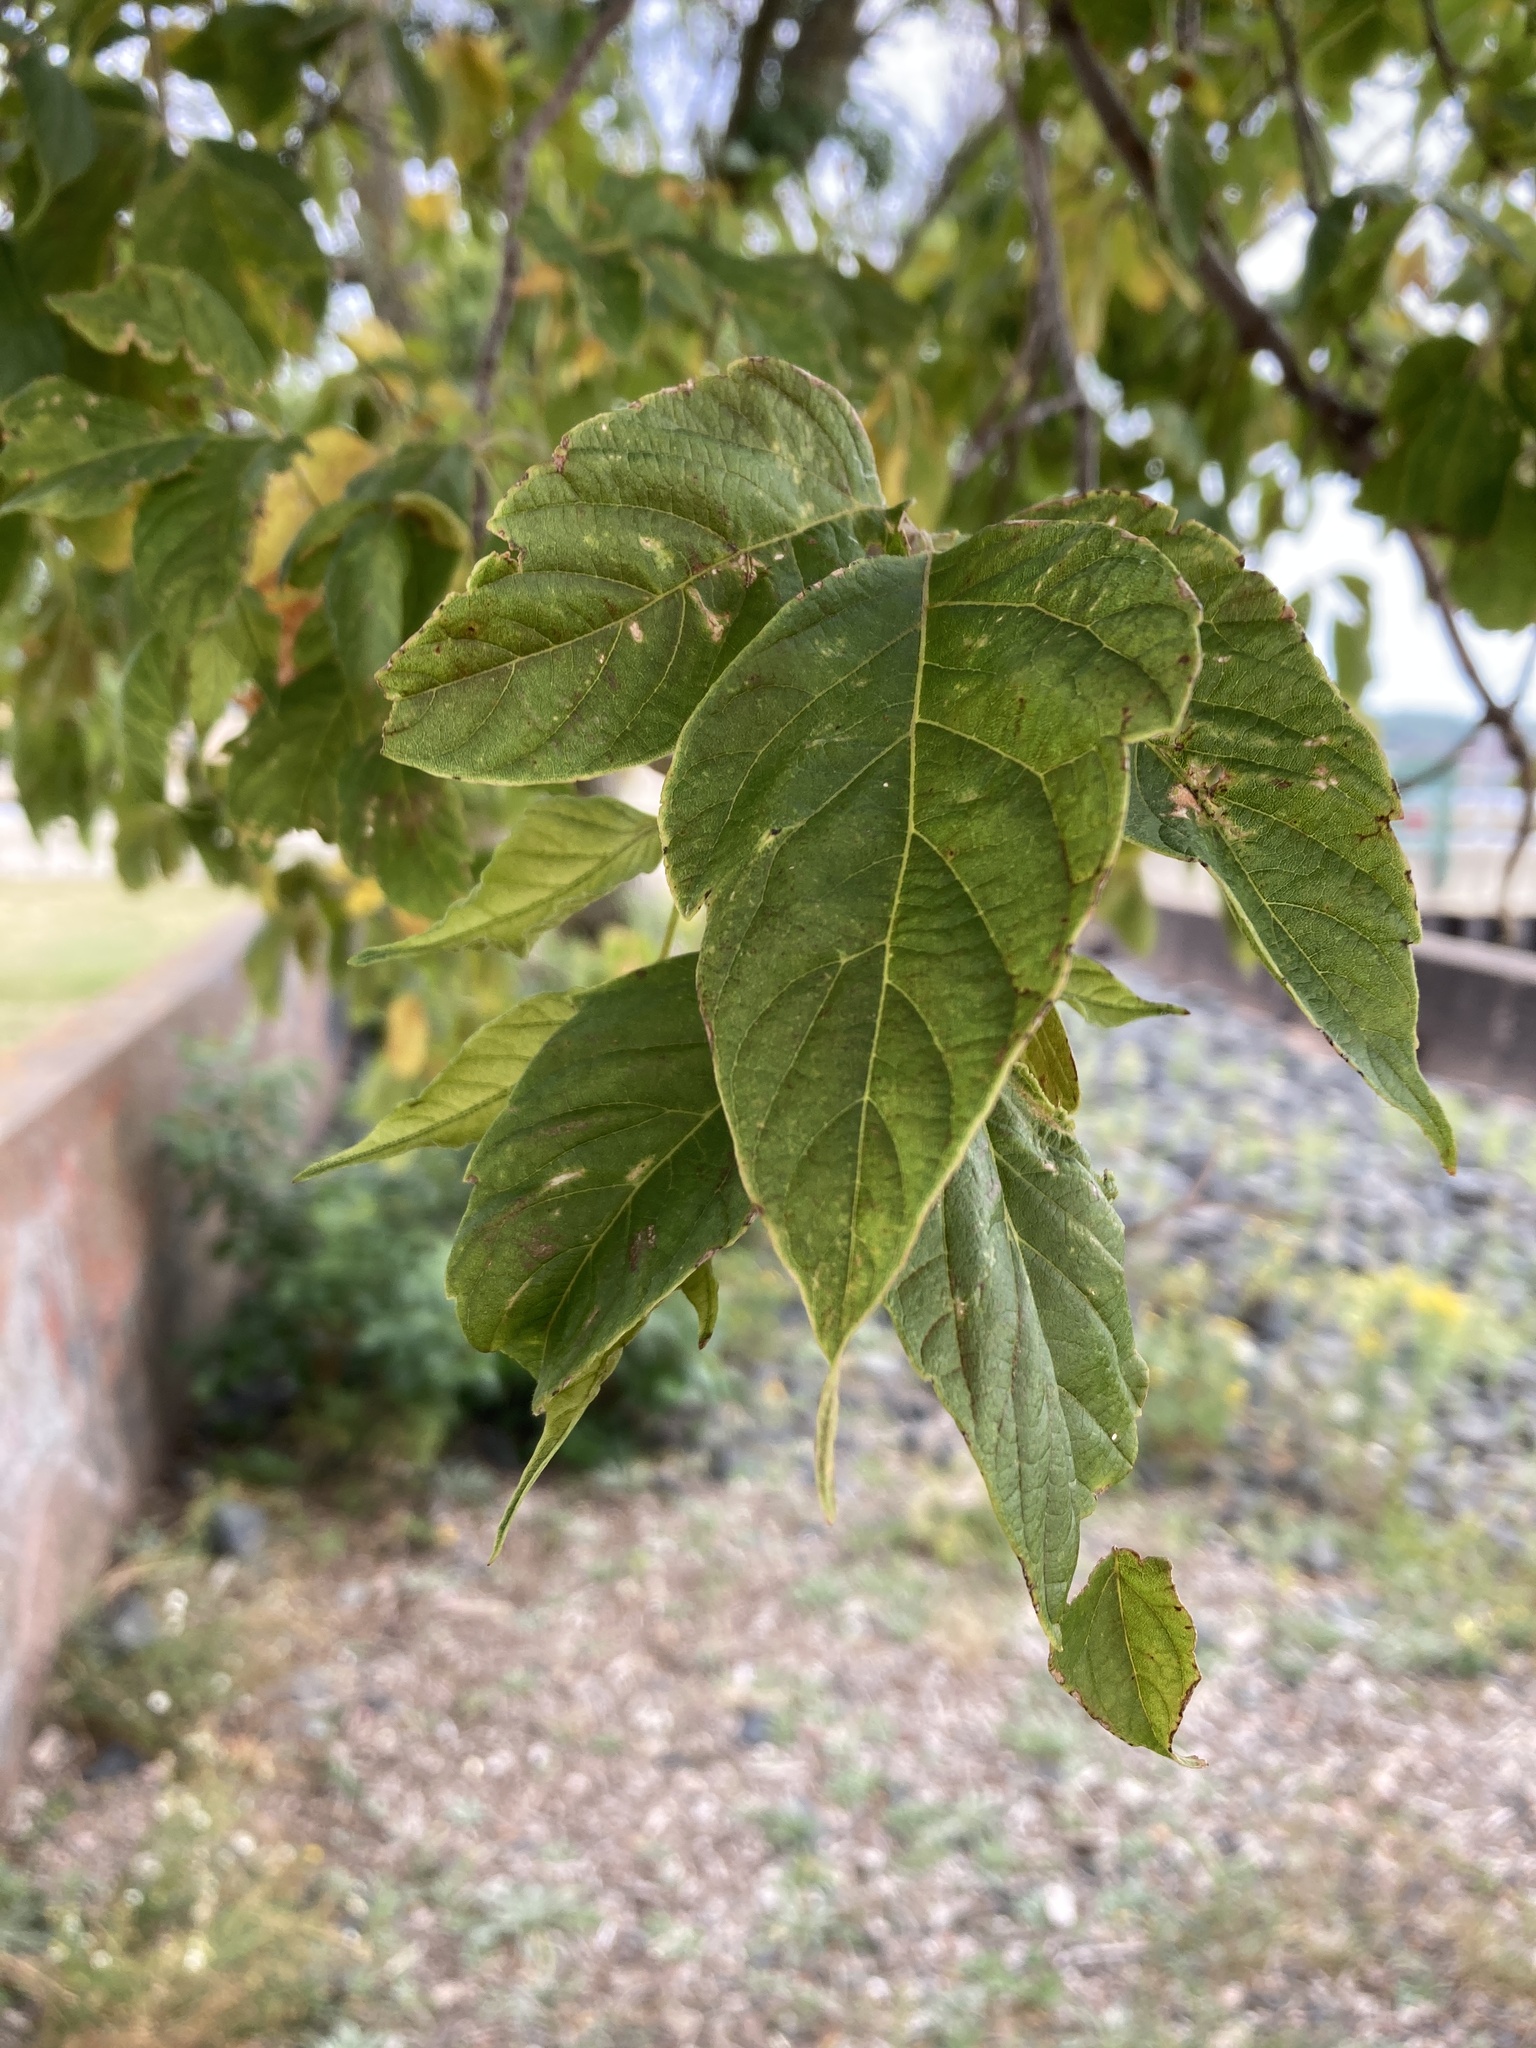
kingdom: Plantae
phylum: Tracheophyta
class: Magnoliopsida
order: Sapindales
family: Sapindaceae
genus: Acer
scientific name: Acer negundo
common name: Ashleaf maple
